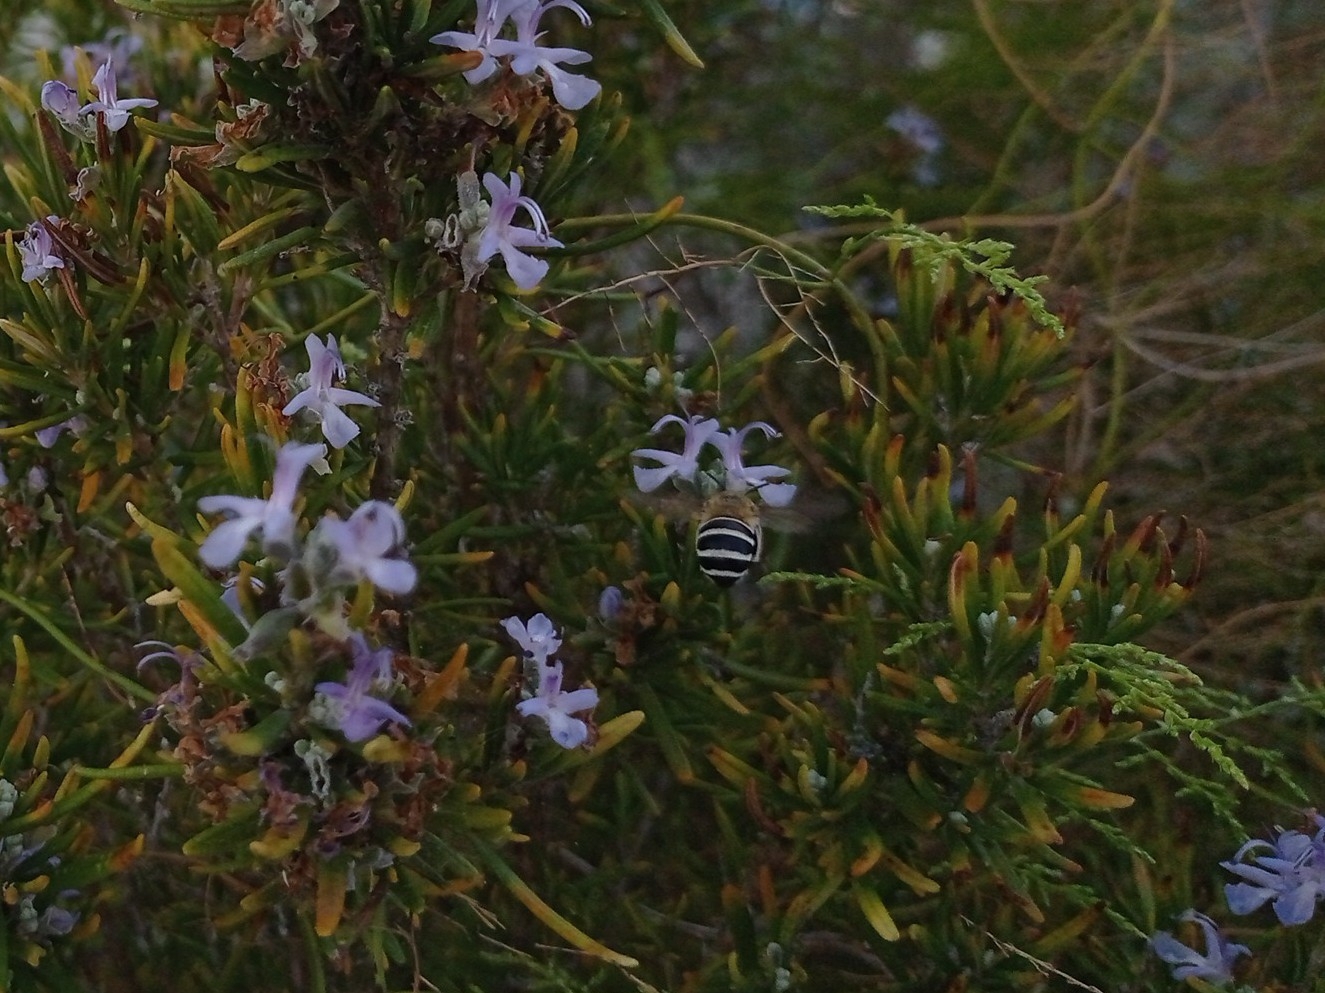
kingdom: Animalia
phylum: Arthropoda
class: Insecta
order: Hymenoptera
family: Apidae
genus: Amegilla
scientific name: Amegilla quadrifasciata
